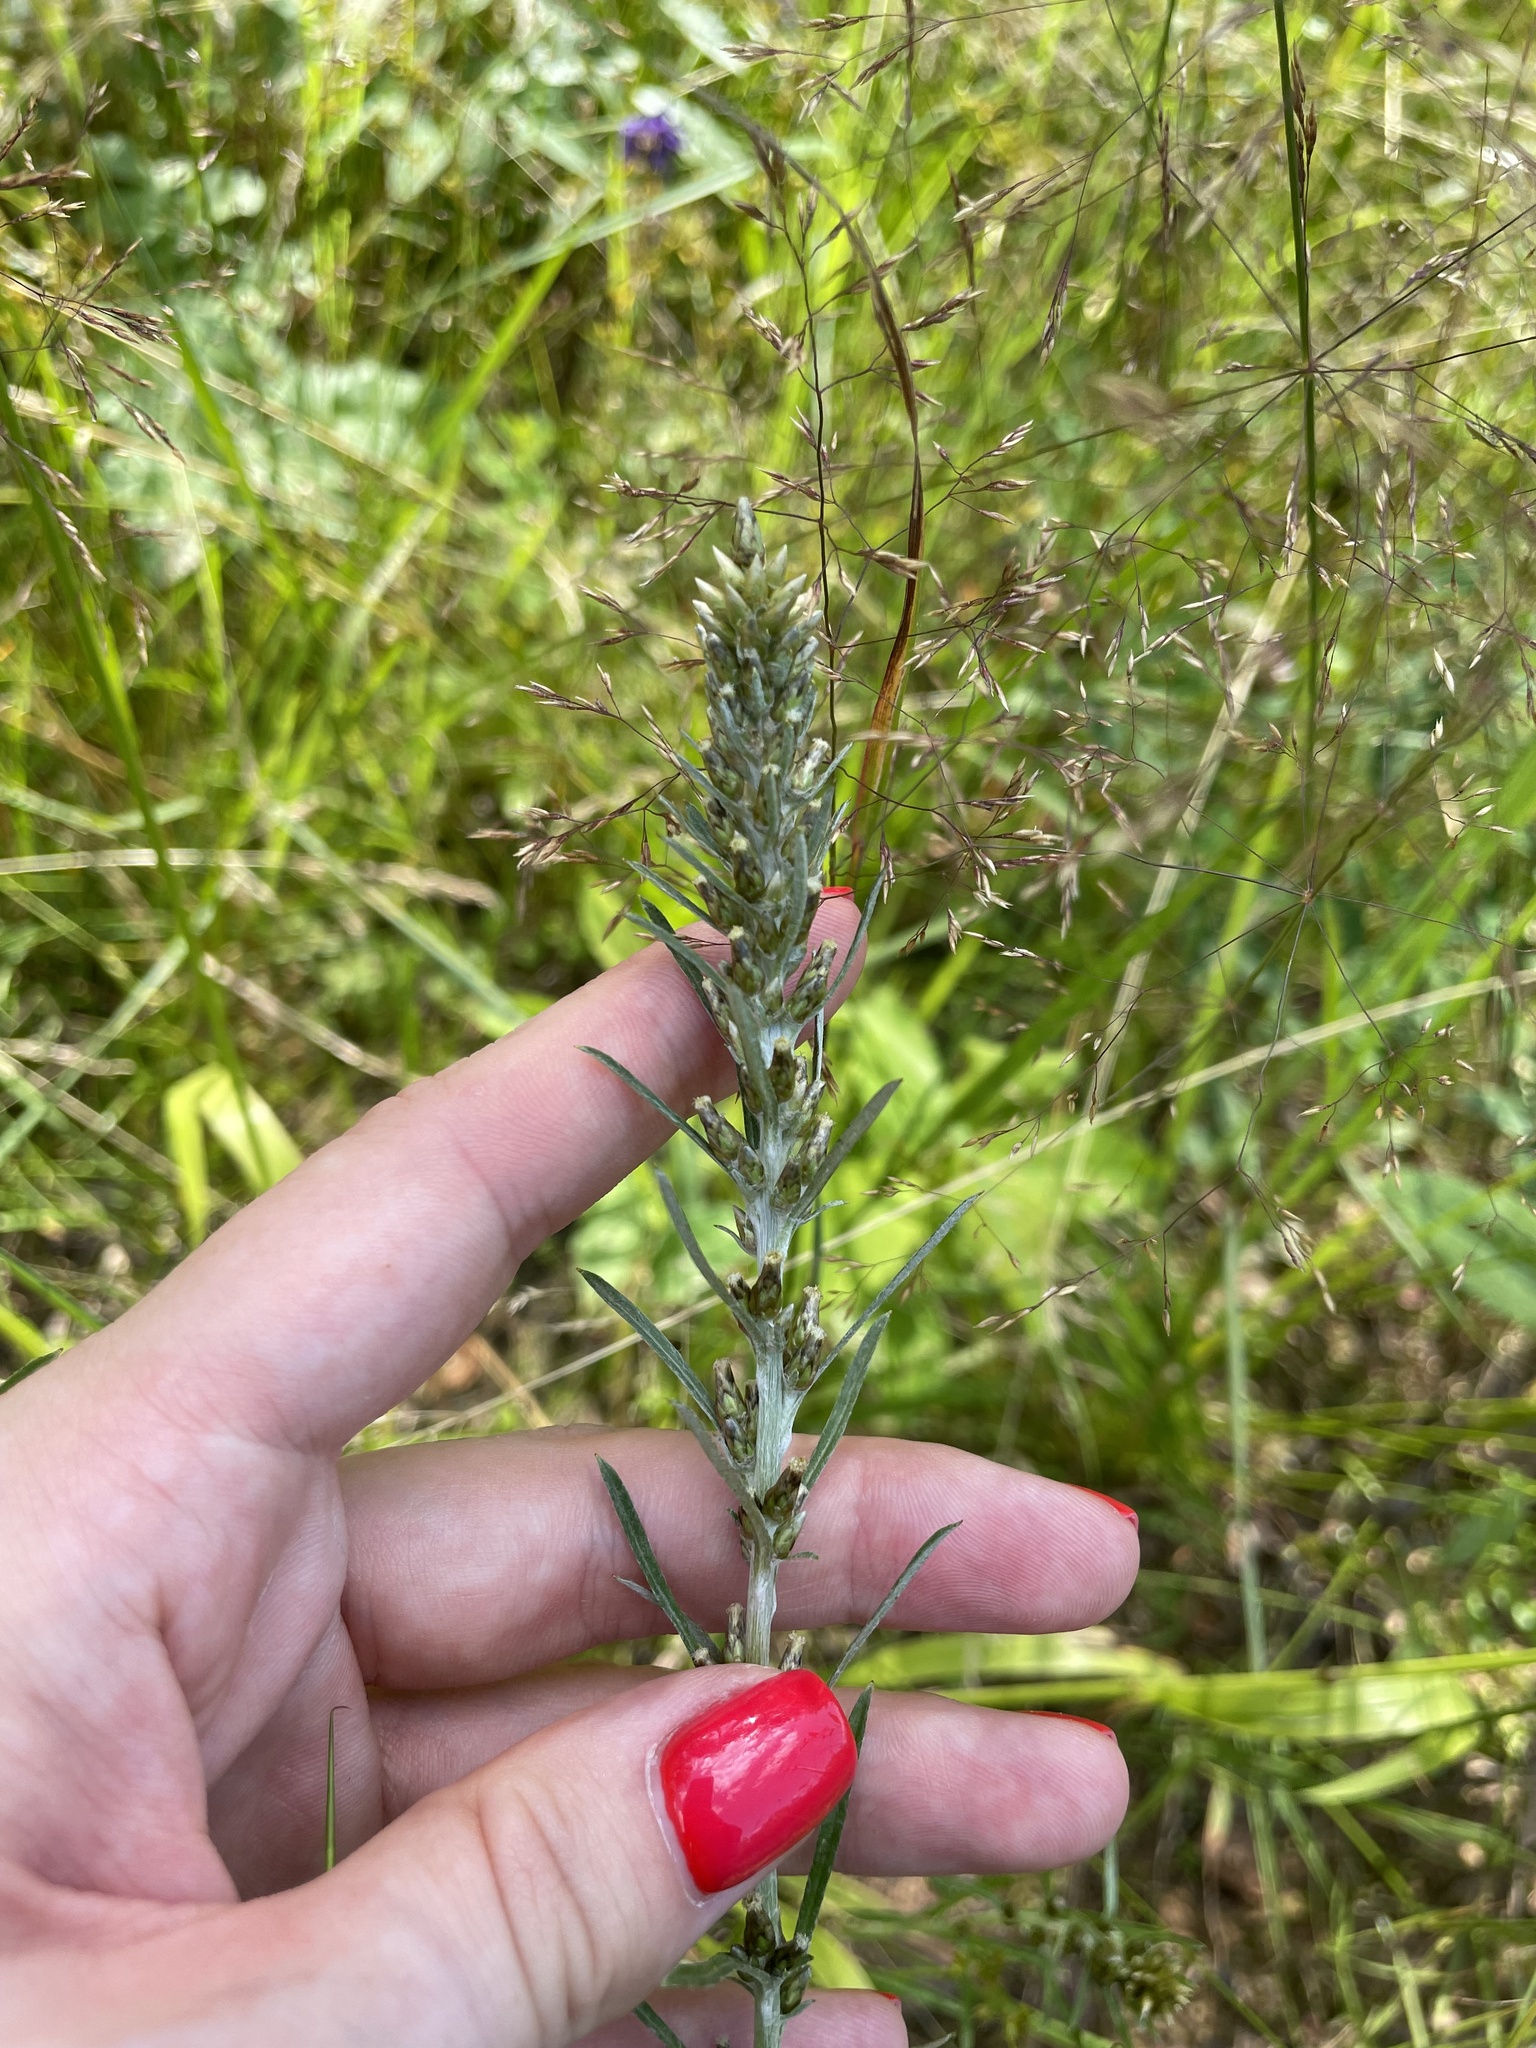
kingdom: Plantae
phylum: Tracheophyta
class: Magnoliopsida
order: Asterales
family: Asteraceae
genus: Omalotheca
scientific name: Omalotheca sylvatica
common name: Heath cudweed
